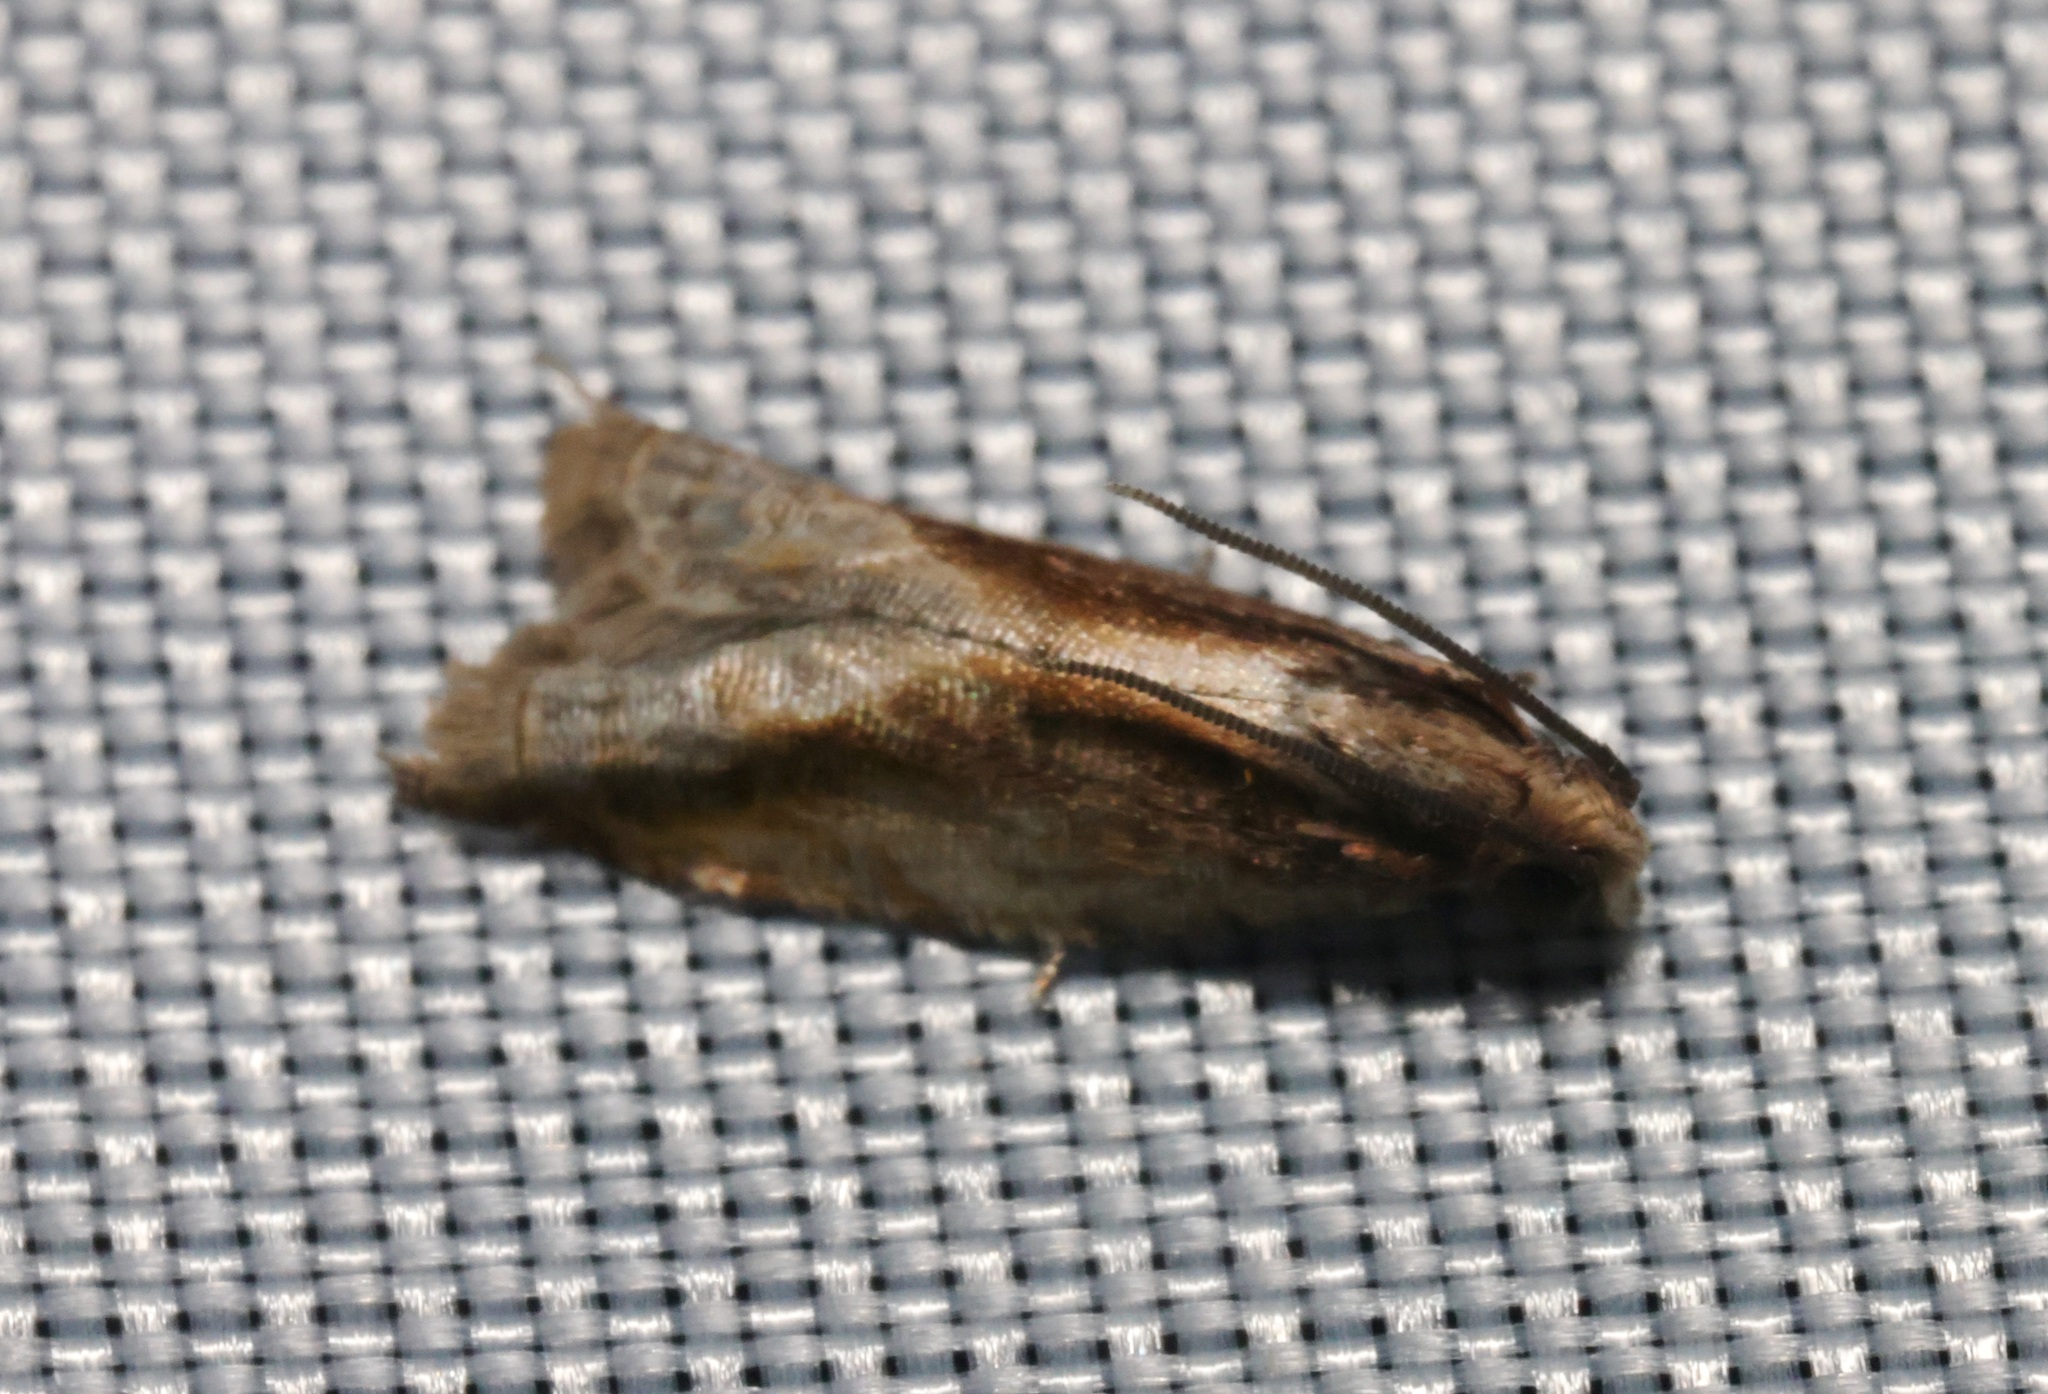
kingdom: Animalia
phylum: Arthropoda
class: Insecta
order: Lepidoptera
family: Tortricidae
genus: Spilonota
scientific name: Spilonota mortuana
